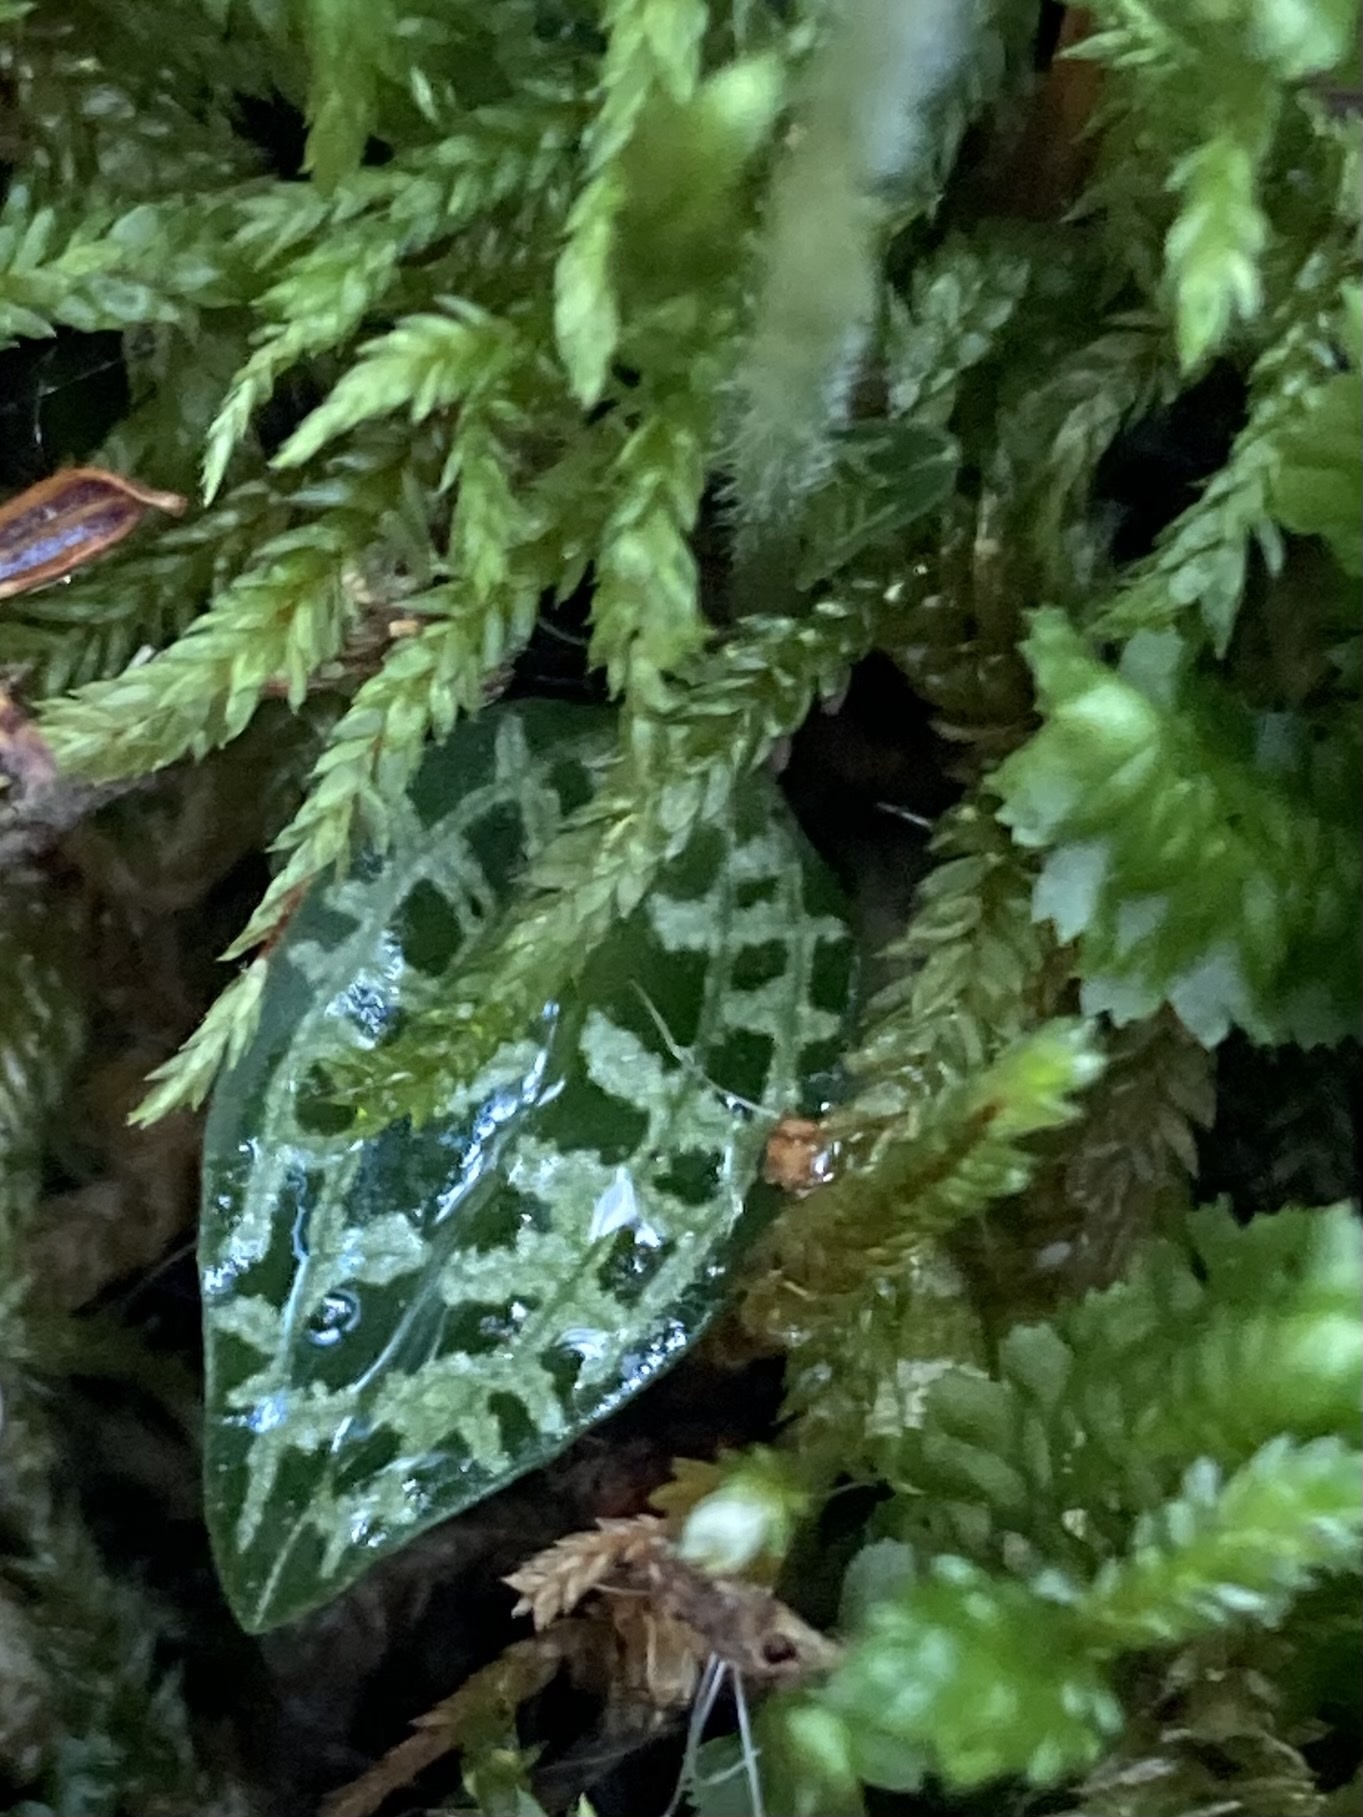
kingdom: Plantae
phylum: Tracheophyta
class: Liliopsida
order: Asparagales
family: Orchidaceae
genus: Goodyera
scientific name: Goodyera repens
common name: Creeping lady's-tresses
